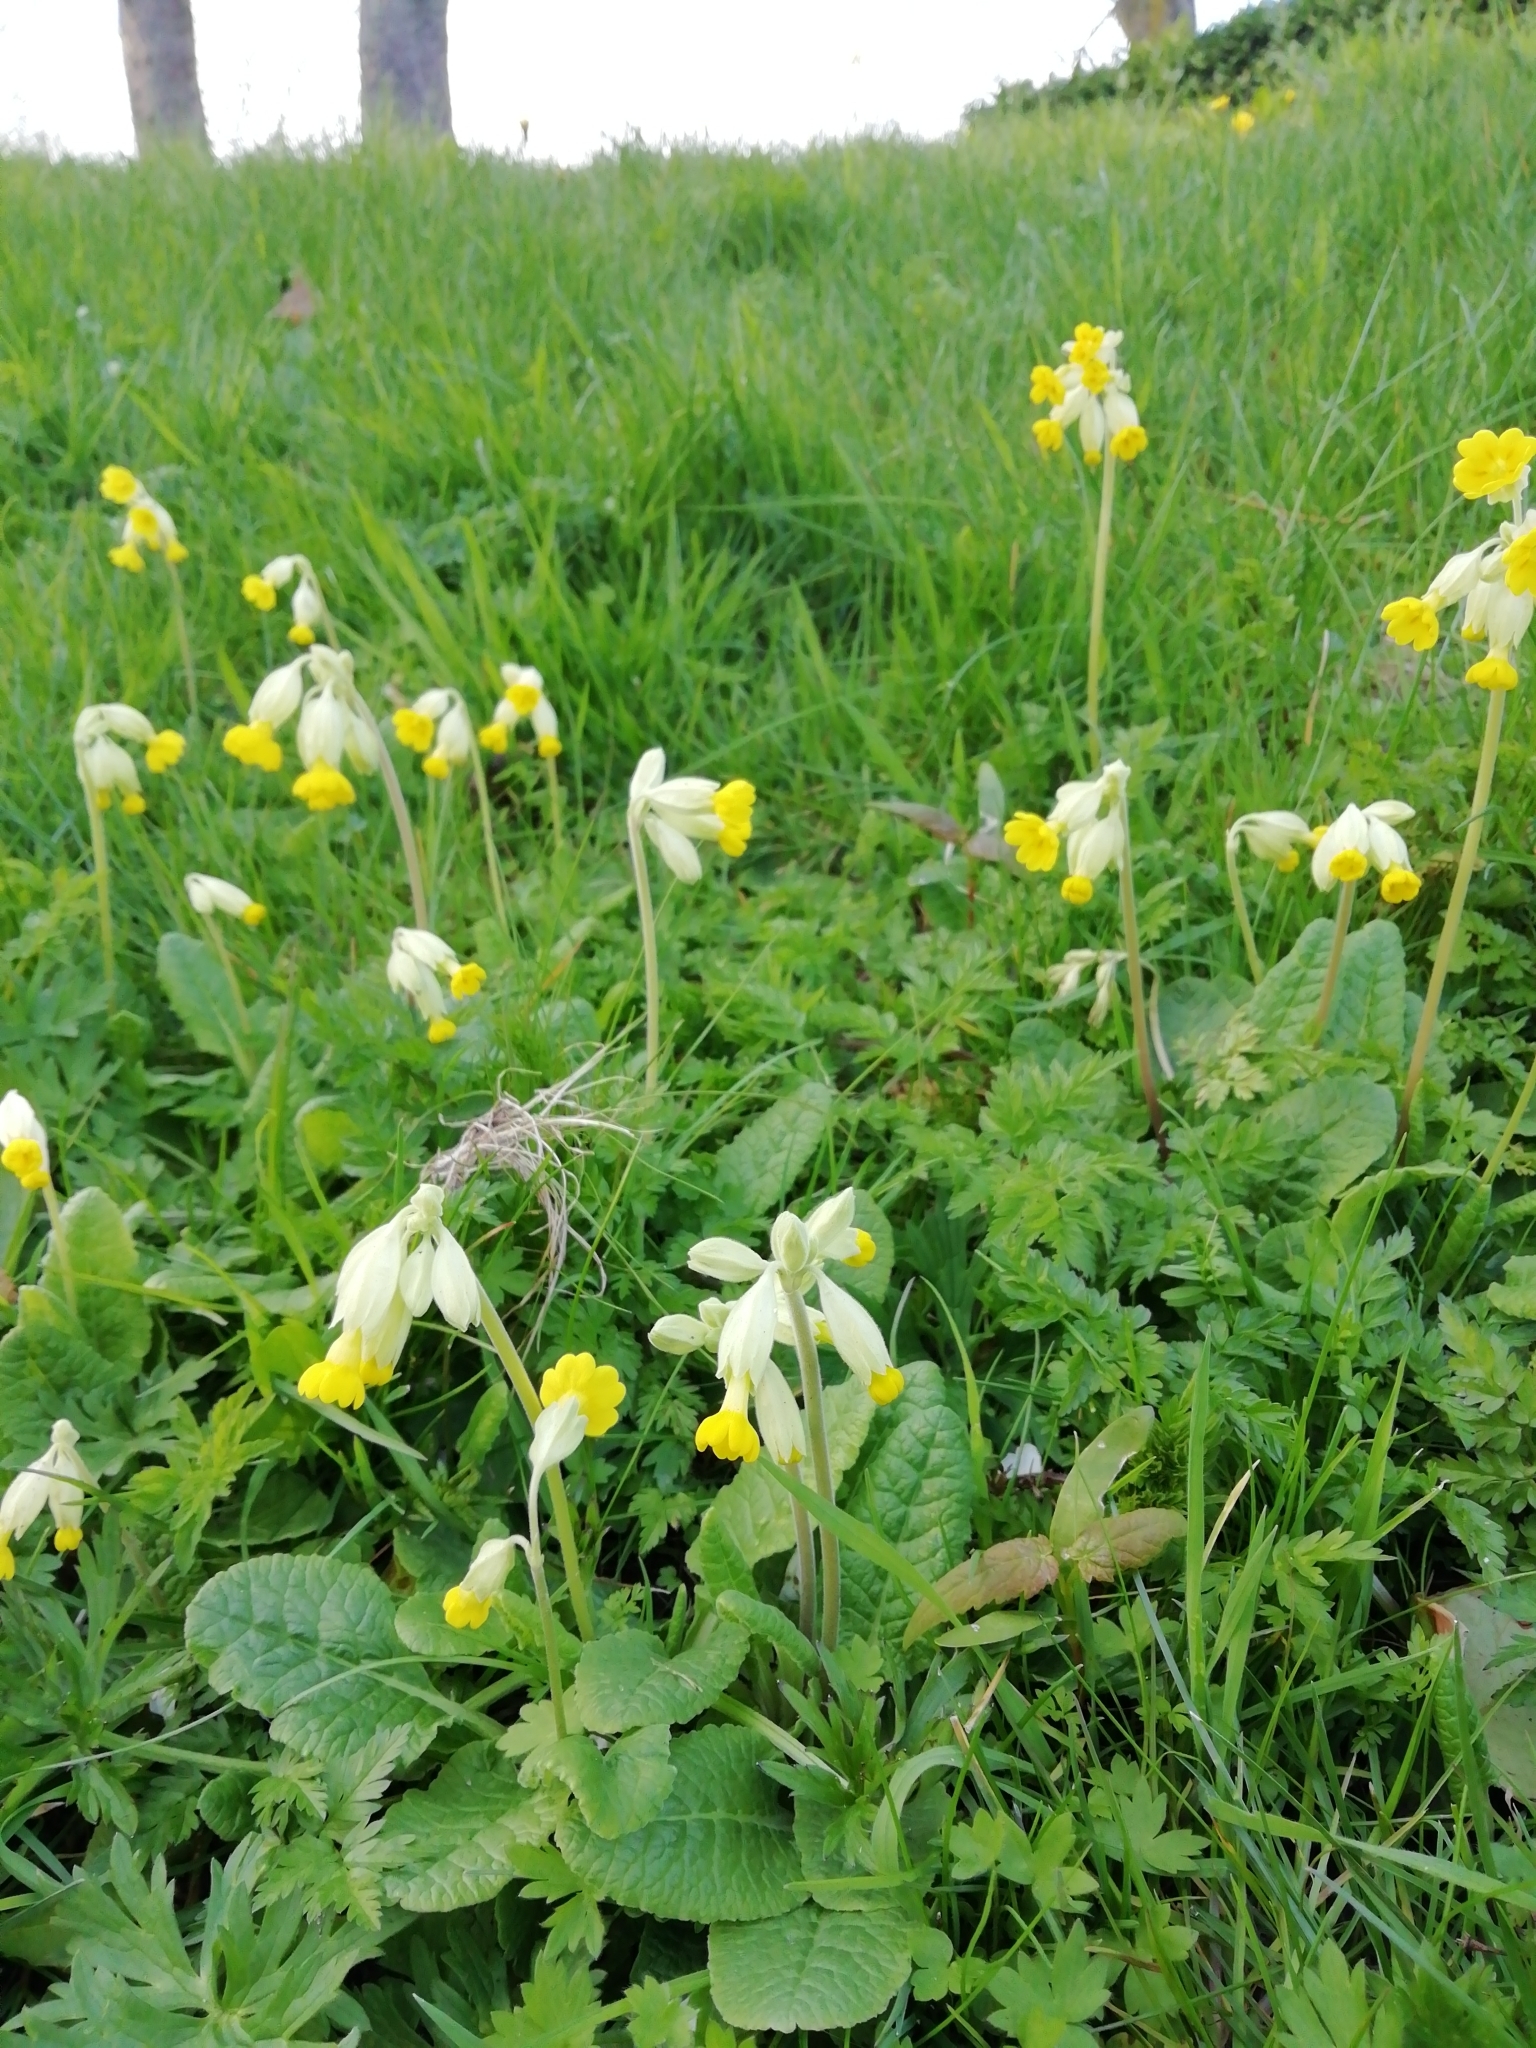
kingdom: Plantae
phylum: Tracheophyta
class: Magnoliopsida
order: Ericales
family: Primulaceae
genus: Primula
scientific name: Primula veris
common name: Cowslip
